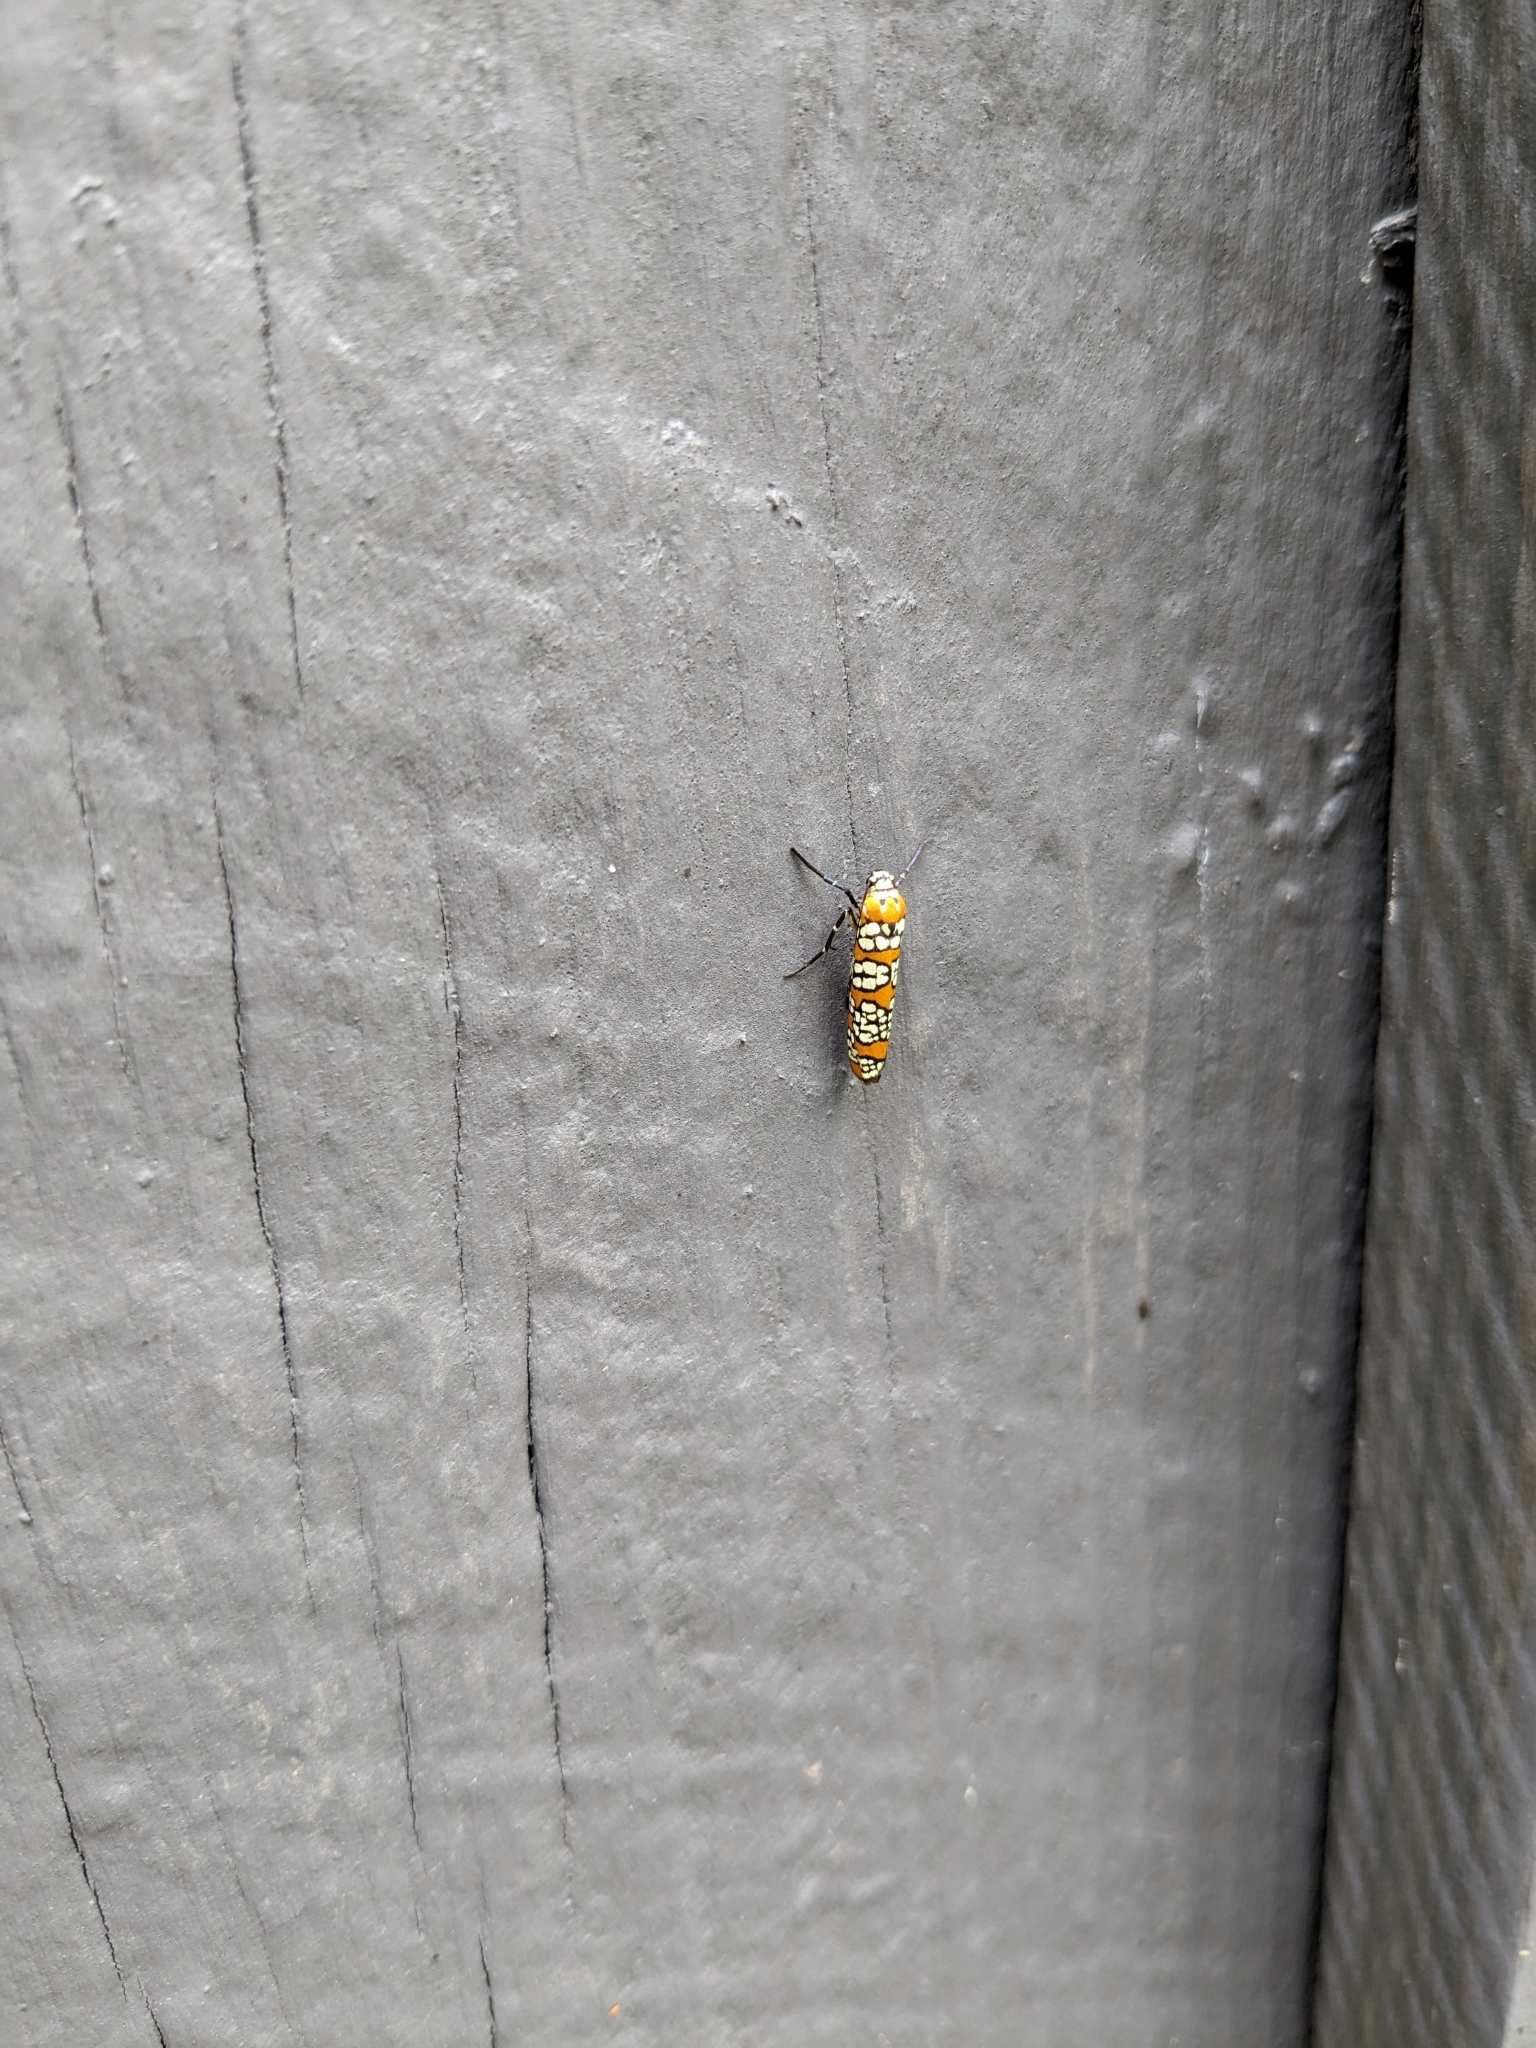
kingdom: Animalia
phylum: Arthropoda
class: Insecta
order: Lepidoptera
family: Attevidae
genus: Atteva
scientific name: Atteva punctella
